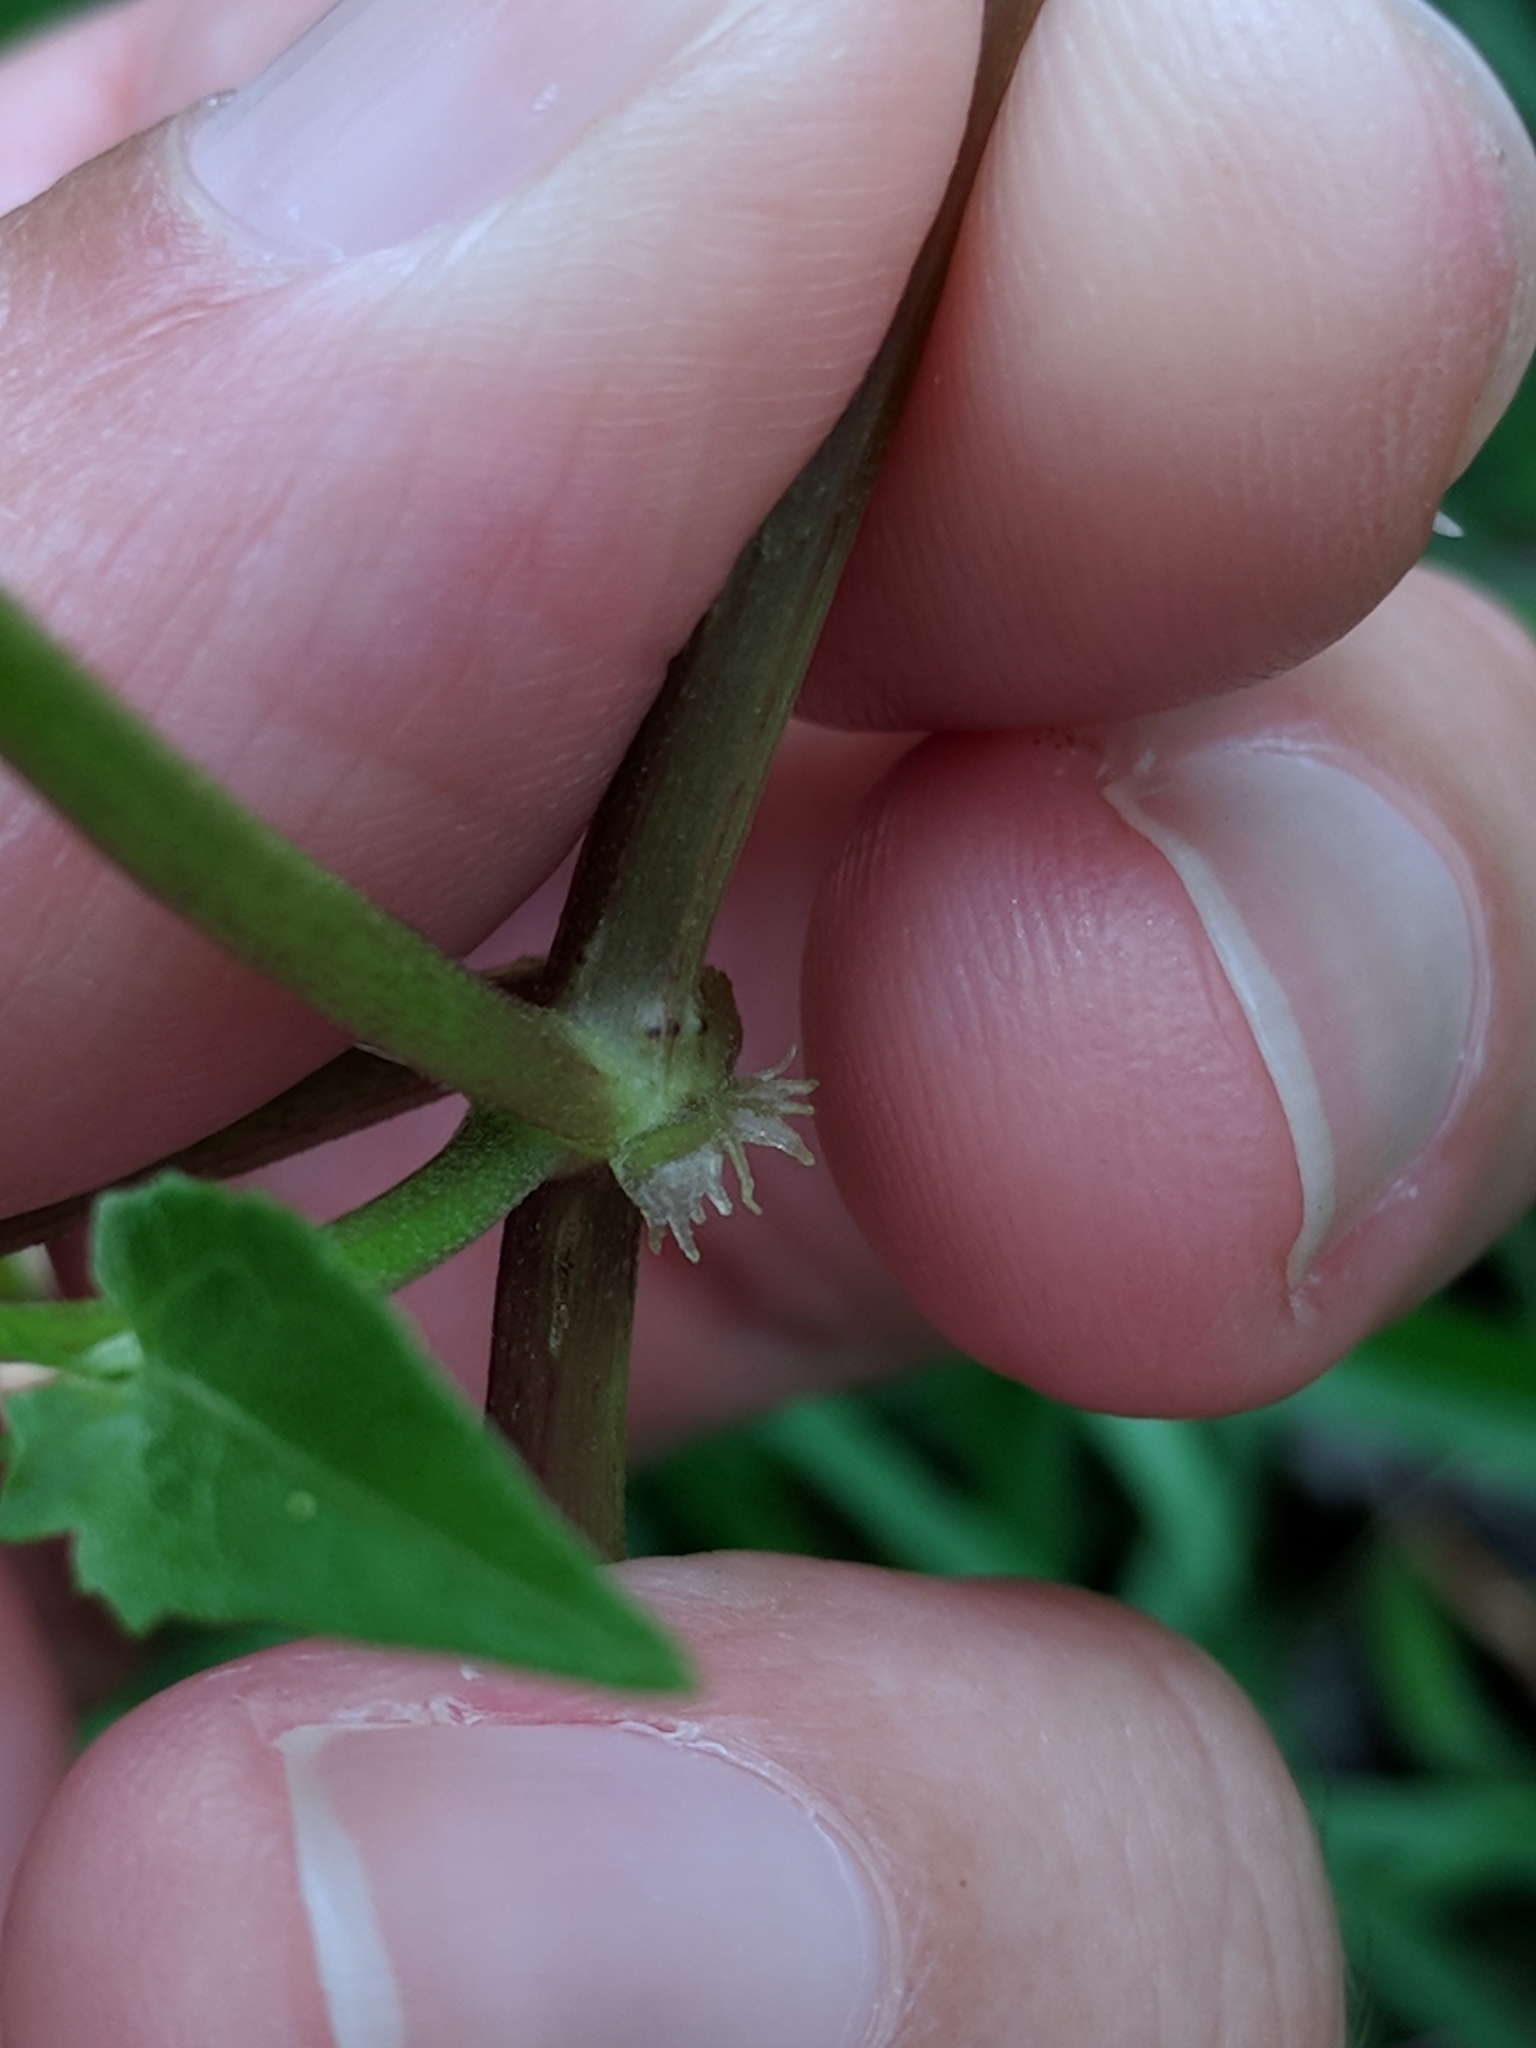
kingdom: Plantae
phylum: Tracheophyta
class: Magnoliopsida
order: Asterales
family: Asteraceae
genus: Mikania
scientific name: Mikania scandens
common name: Climbing hempvine
